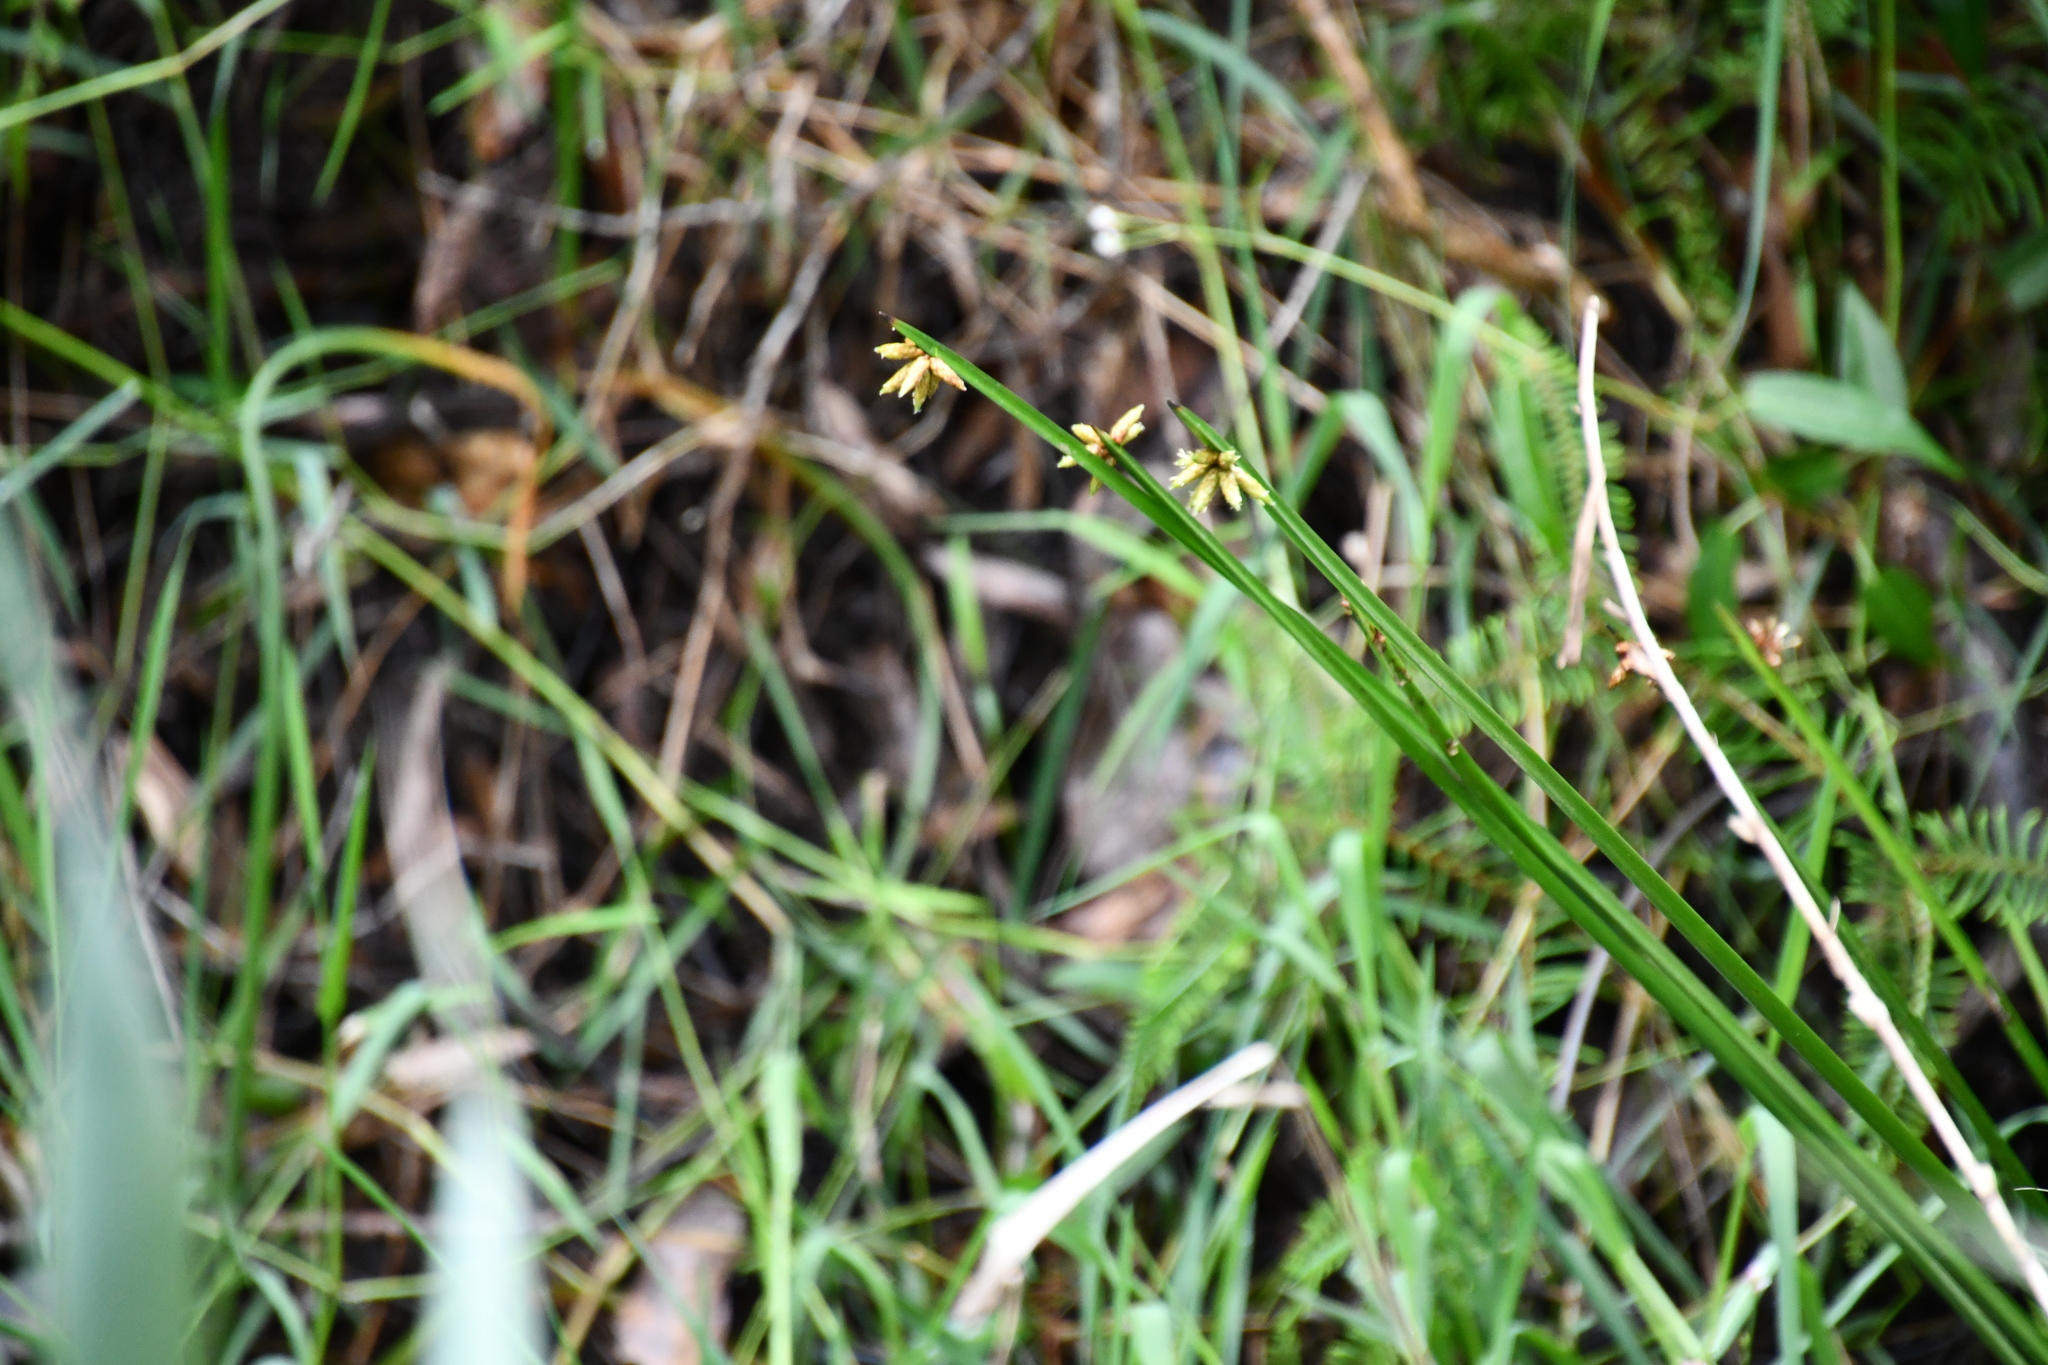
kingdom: Plantae
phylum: Tracheophyta
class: Liliopsida
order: Poales
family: Cyperaceae
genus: Schoenoplectiella
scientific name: Schoenoplectiella mucronata
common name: Bog bulrush
